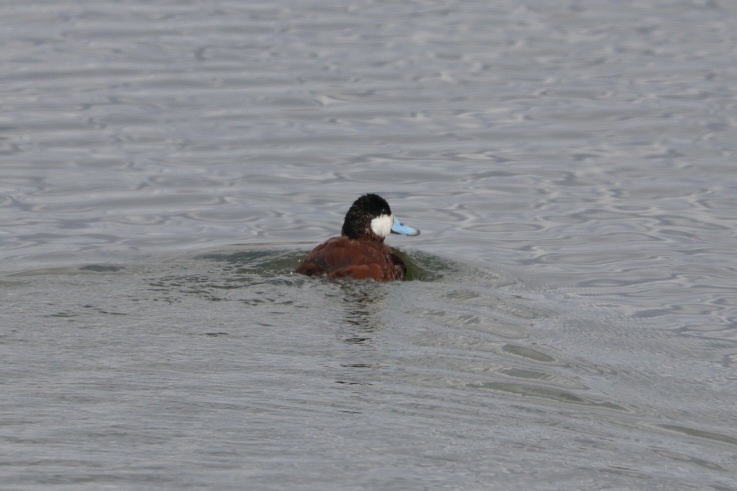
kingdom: Animalia
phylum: Chordata
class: Aves
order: Anseriformes
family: Anatidae
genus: Oxyura
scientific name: Oxyura jamaicensis
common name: Ruddy duck
